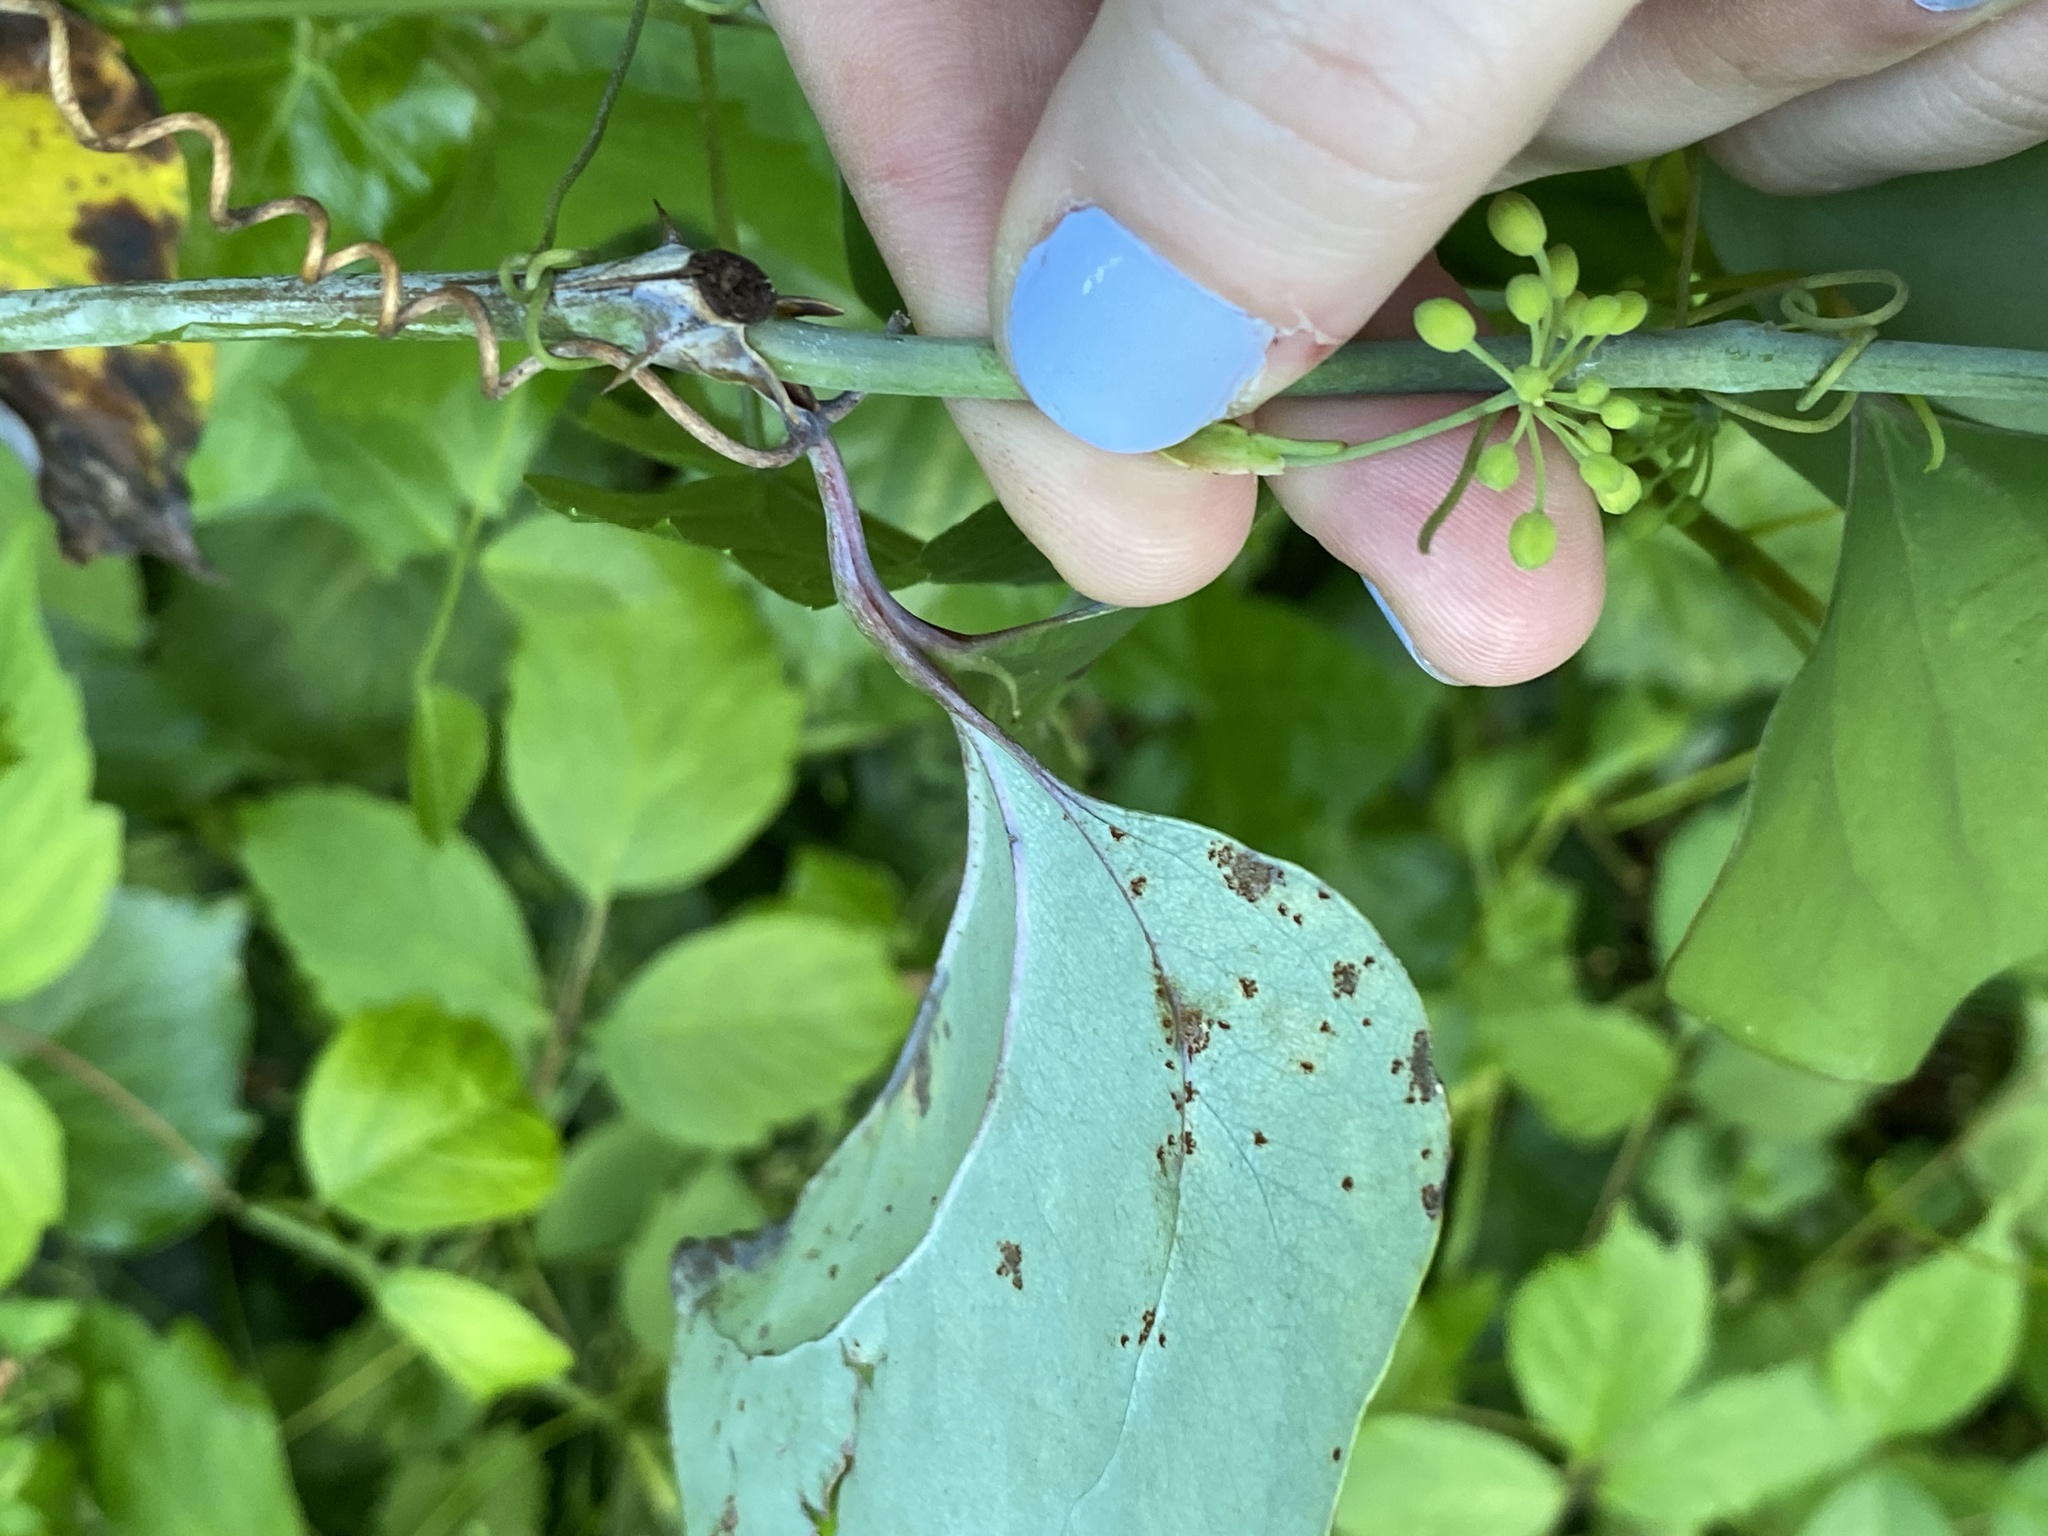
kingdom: Plantae
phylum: Tracheophyta
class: Liliopsida
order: Liliales
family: Smilacaceae
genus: Smilax
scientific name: Smilax glauca
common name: Cat greenbrier
